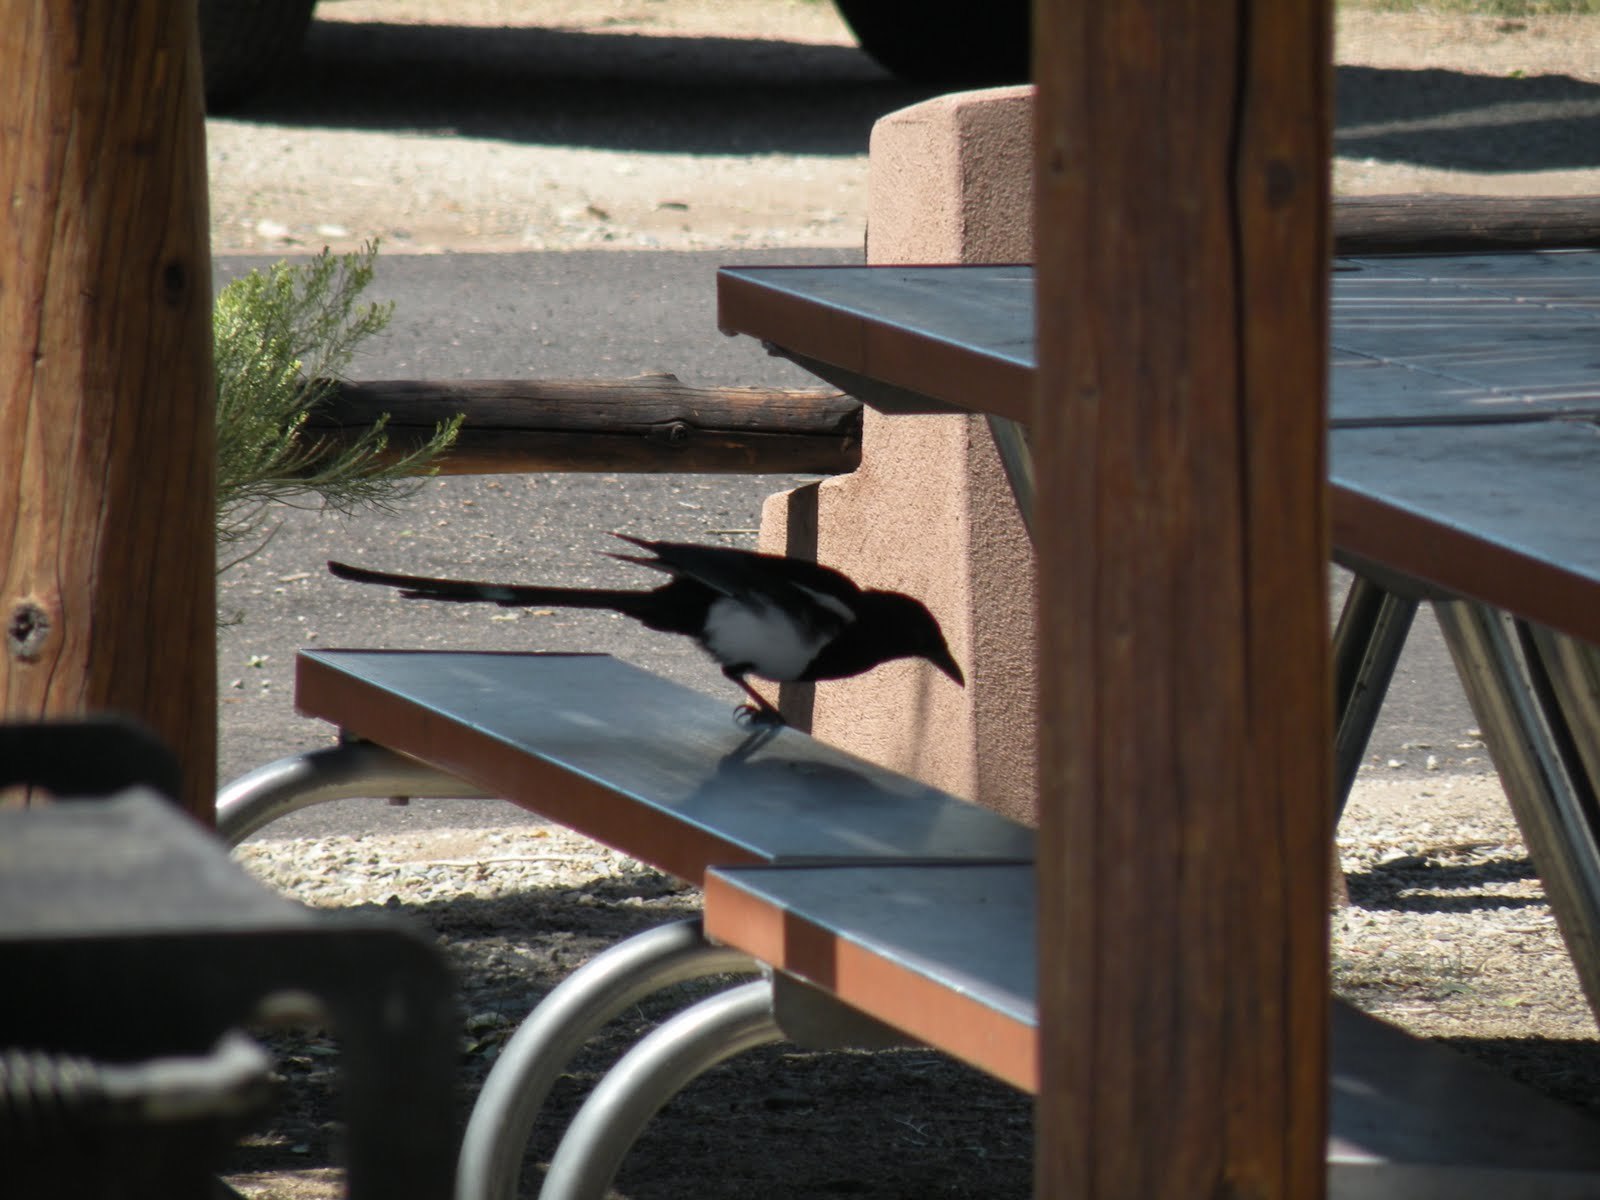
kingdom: Animalia
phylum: Chordata
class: Aves
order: Passeriformes
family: Corvidae
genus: Pica
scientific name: Pica hudsonia
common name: Black-billed magpie
